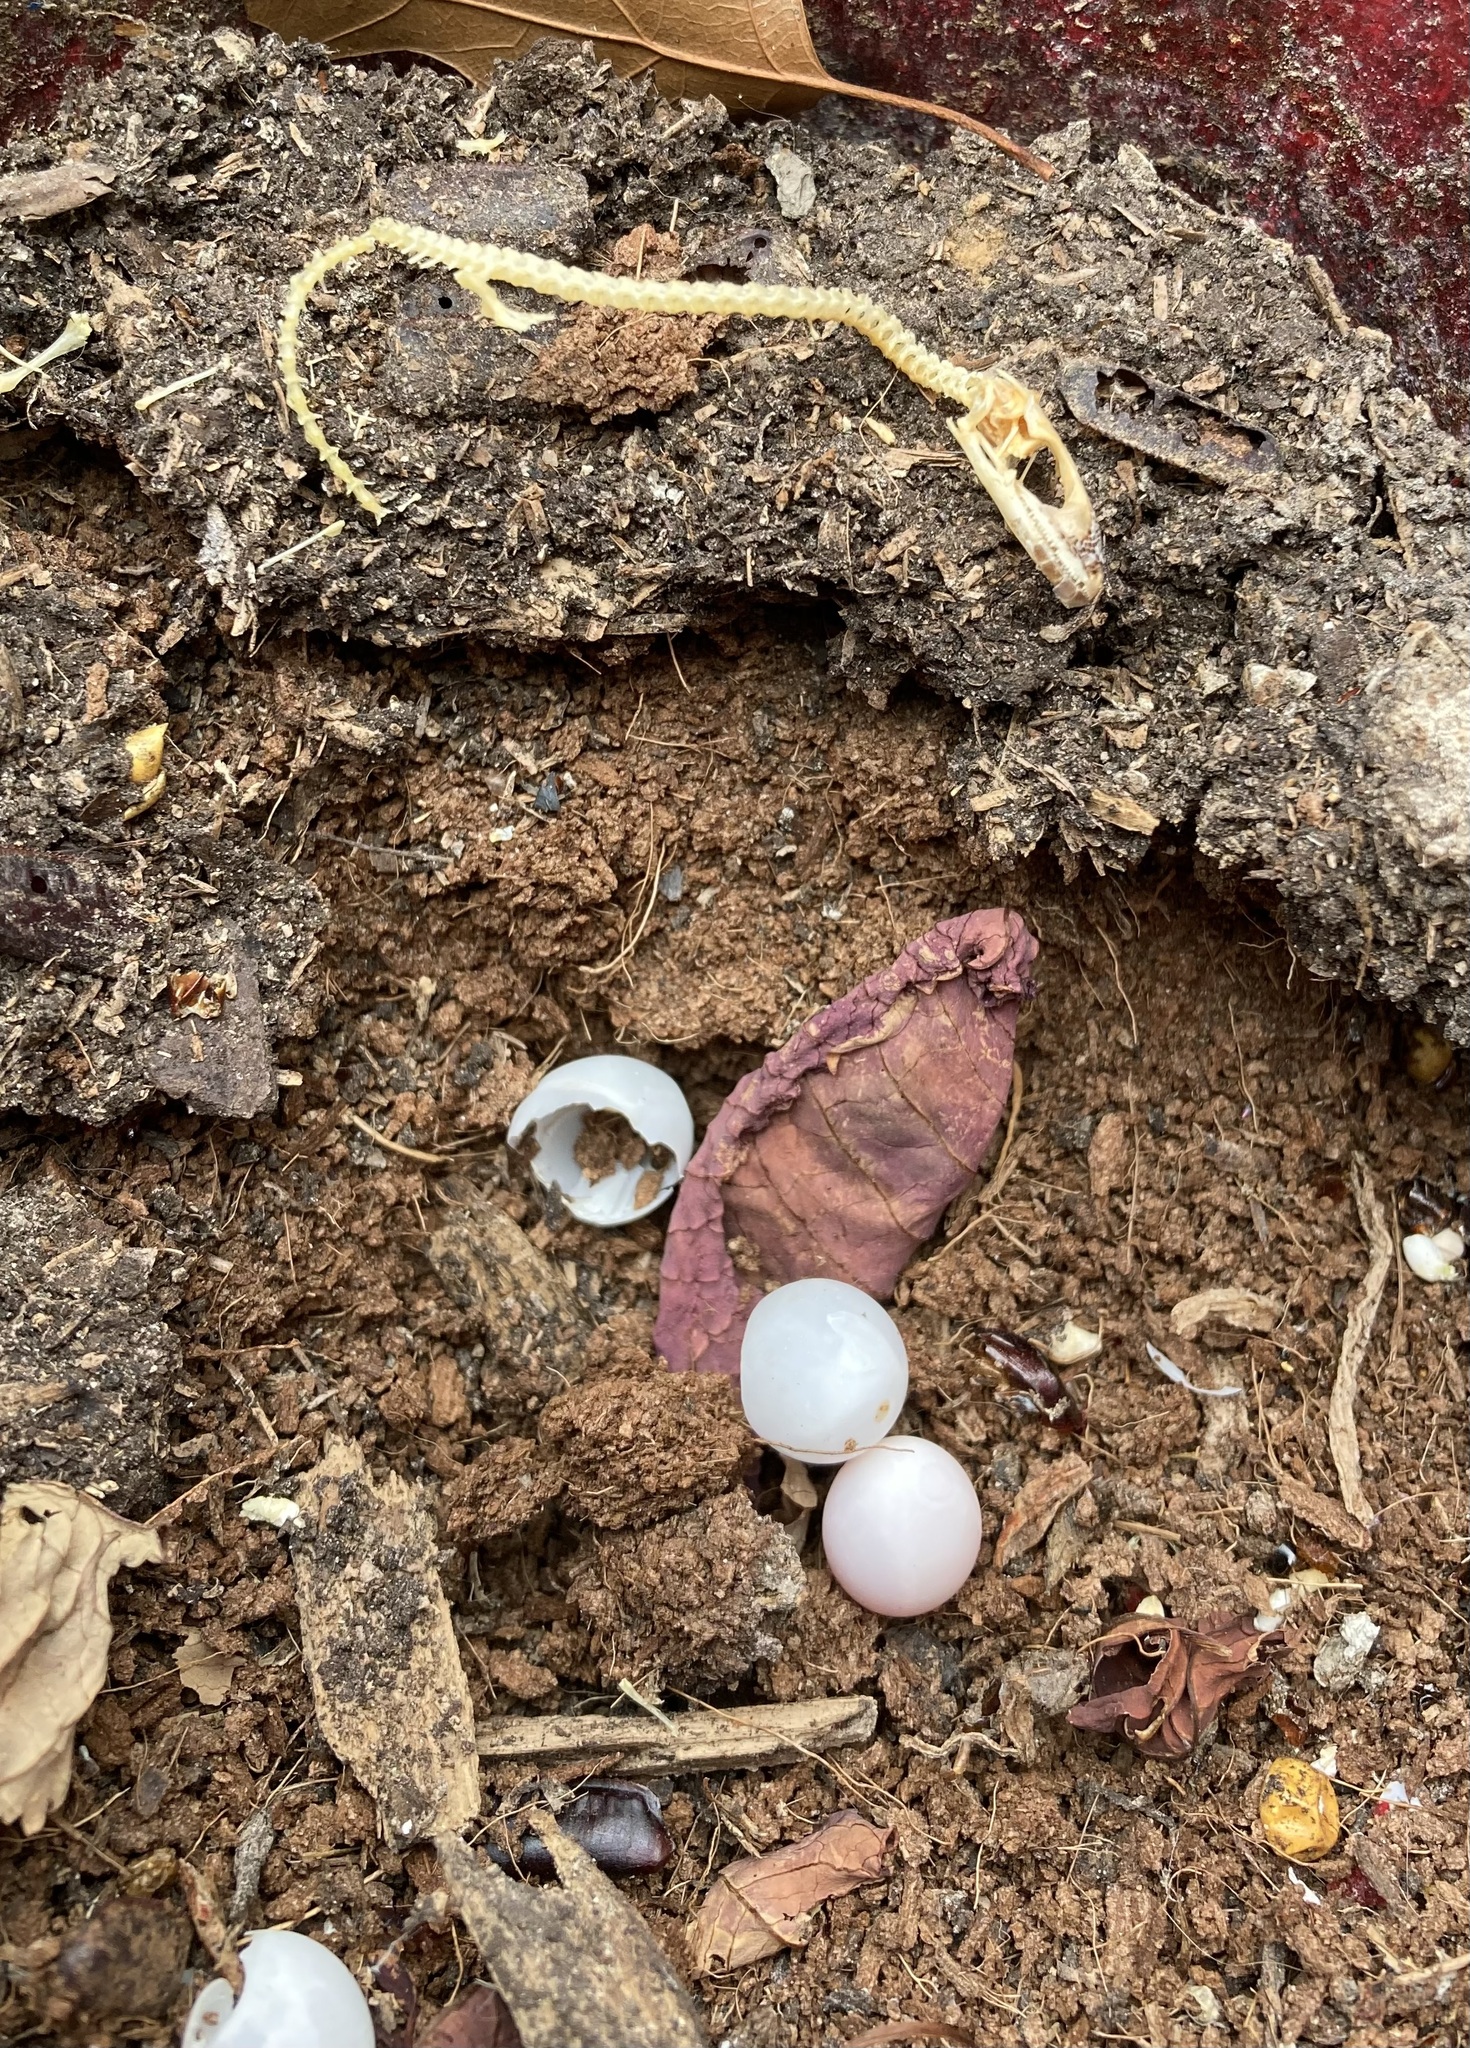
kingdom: Animalia
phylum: Chordata
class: Squamata
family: Dactyloidae
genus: Anolis
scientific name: Anolis carolinensis
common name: Green anole
